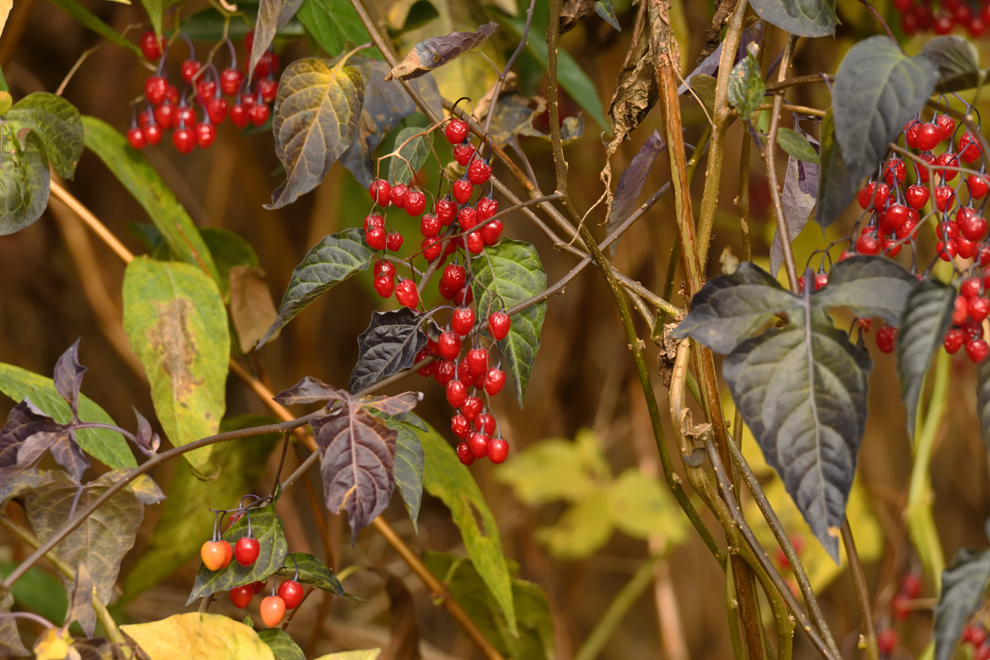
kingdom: Plantae
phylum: Tracheophyta
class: Magnoliopsida
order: Solanales
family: Solanaceae
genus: Solanum
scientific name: Solanum dulcamara
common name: Climbing nightshade
